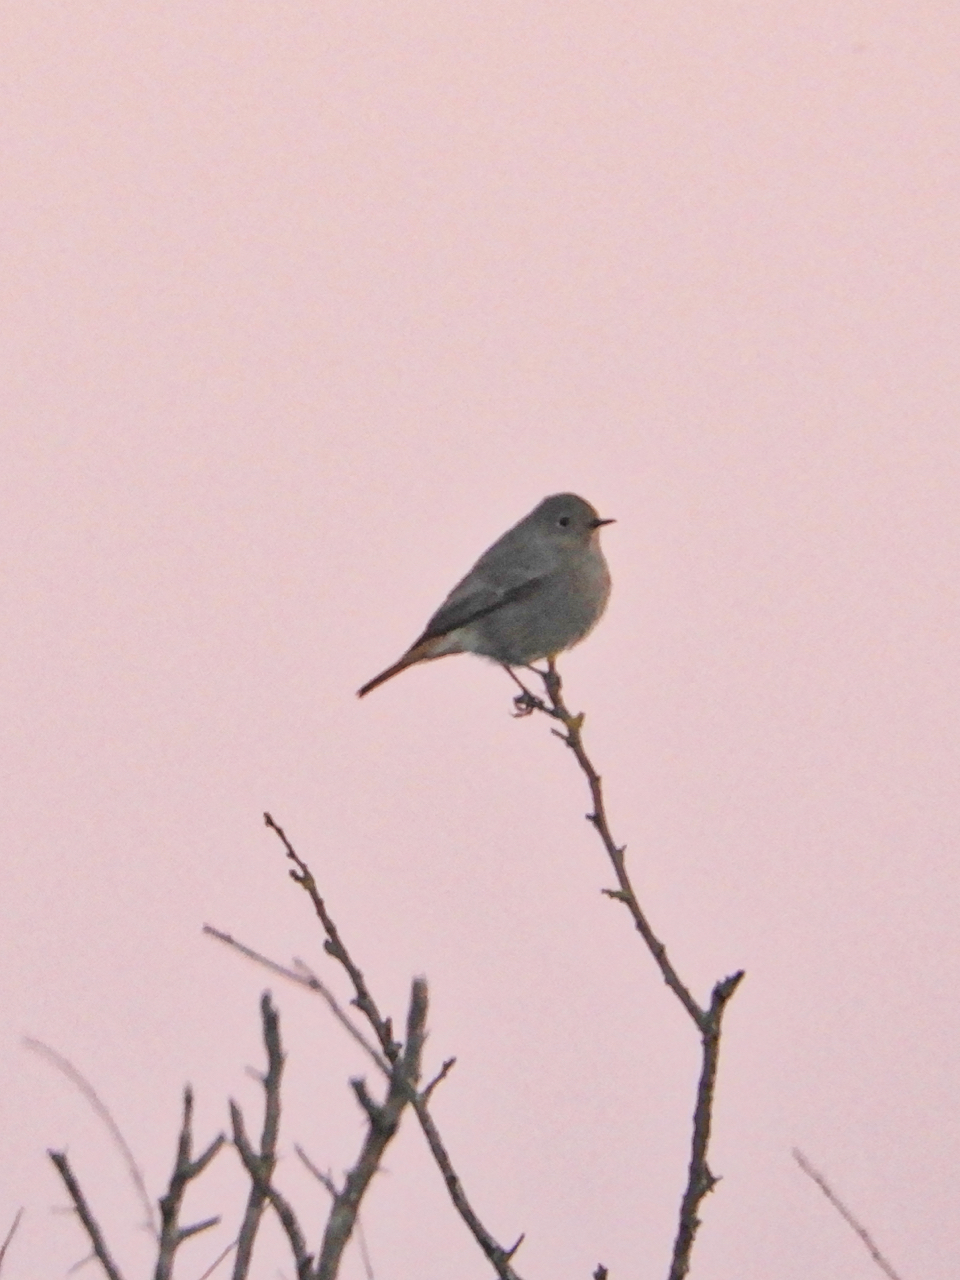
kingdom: Animalia
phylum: Chordata
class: Aves
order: Passeriformes
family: Muscicapidae
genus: Phoenicurus
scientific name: Phoenicurus ochruros
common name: Black redstart
